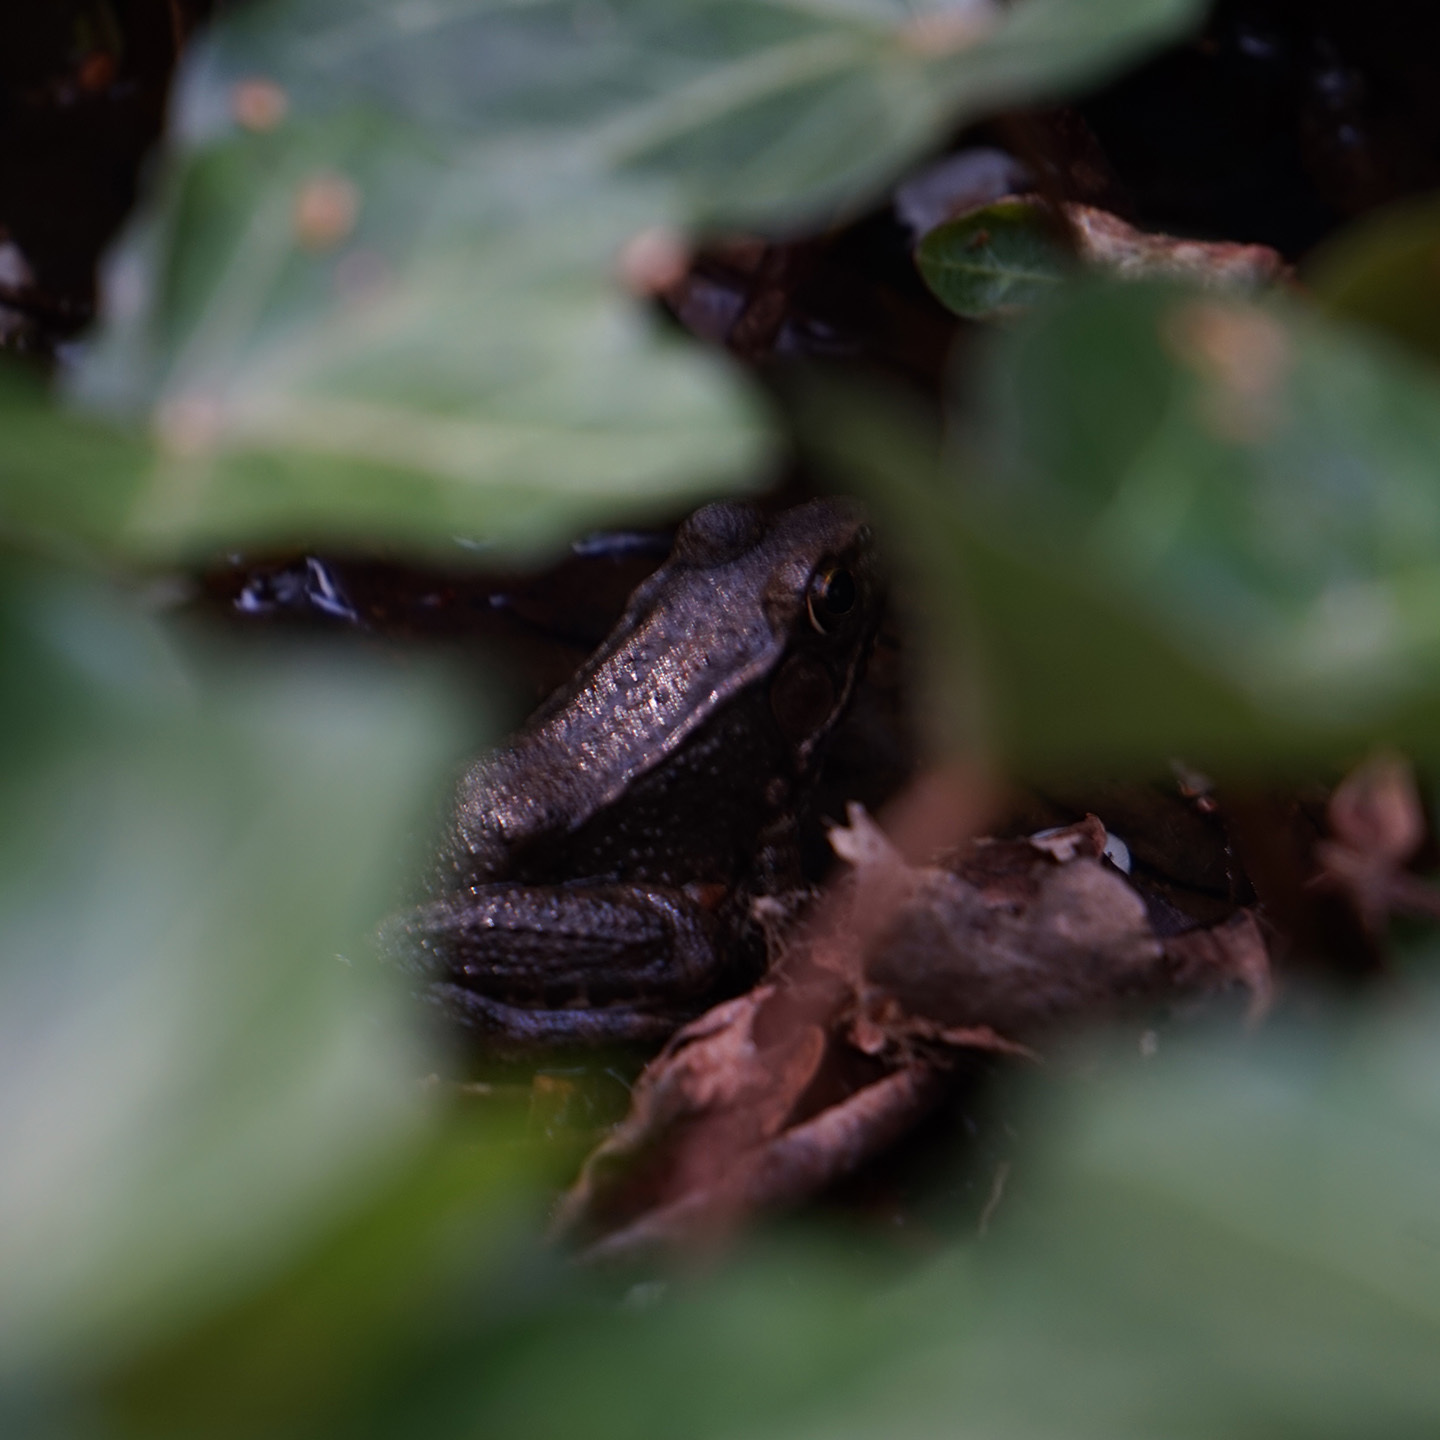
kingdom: Animalia
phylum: Chordata
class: Amphibia
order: Anura
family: Ranidae
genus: Lithobates
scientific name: Lithobates clamitans
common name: Green frog
